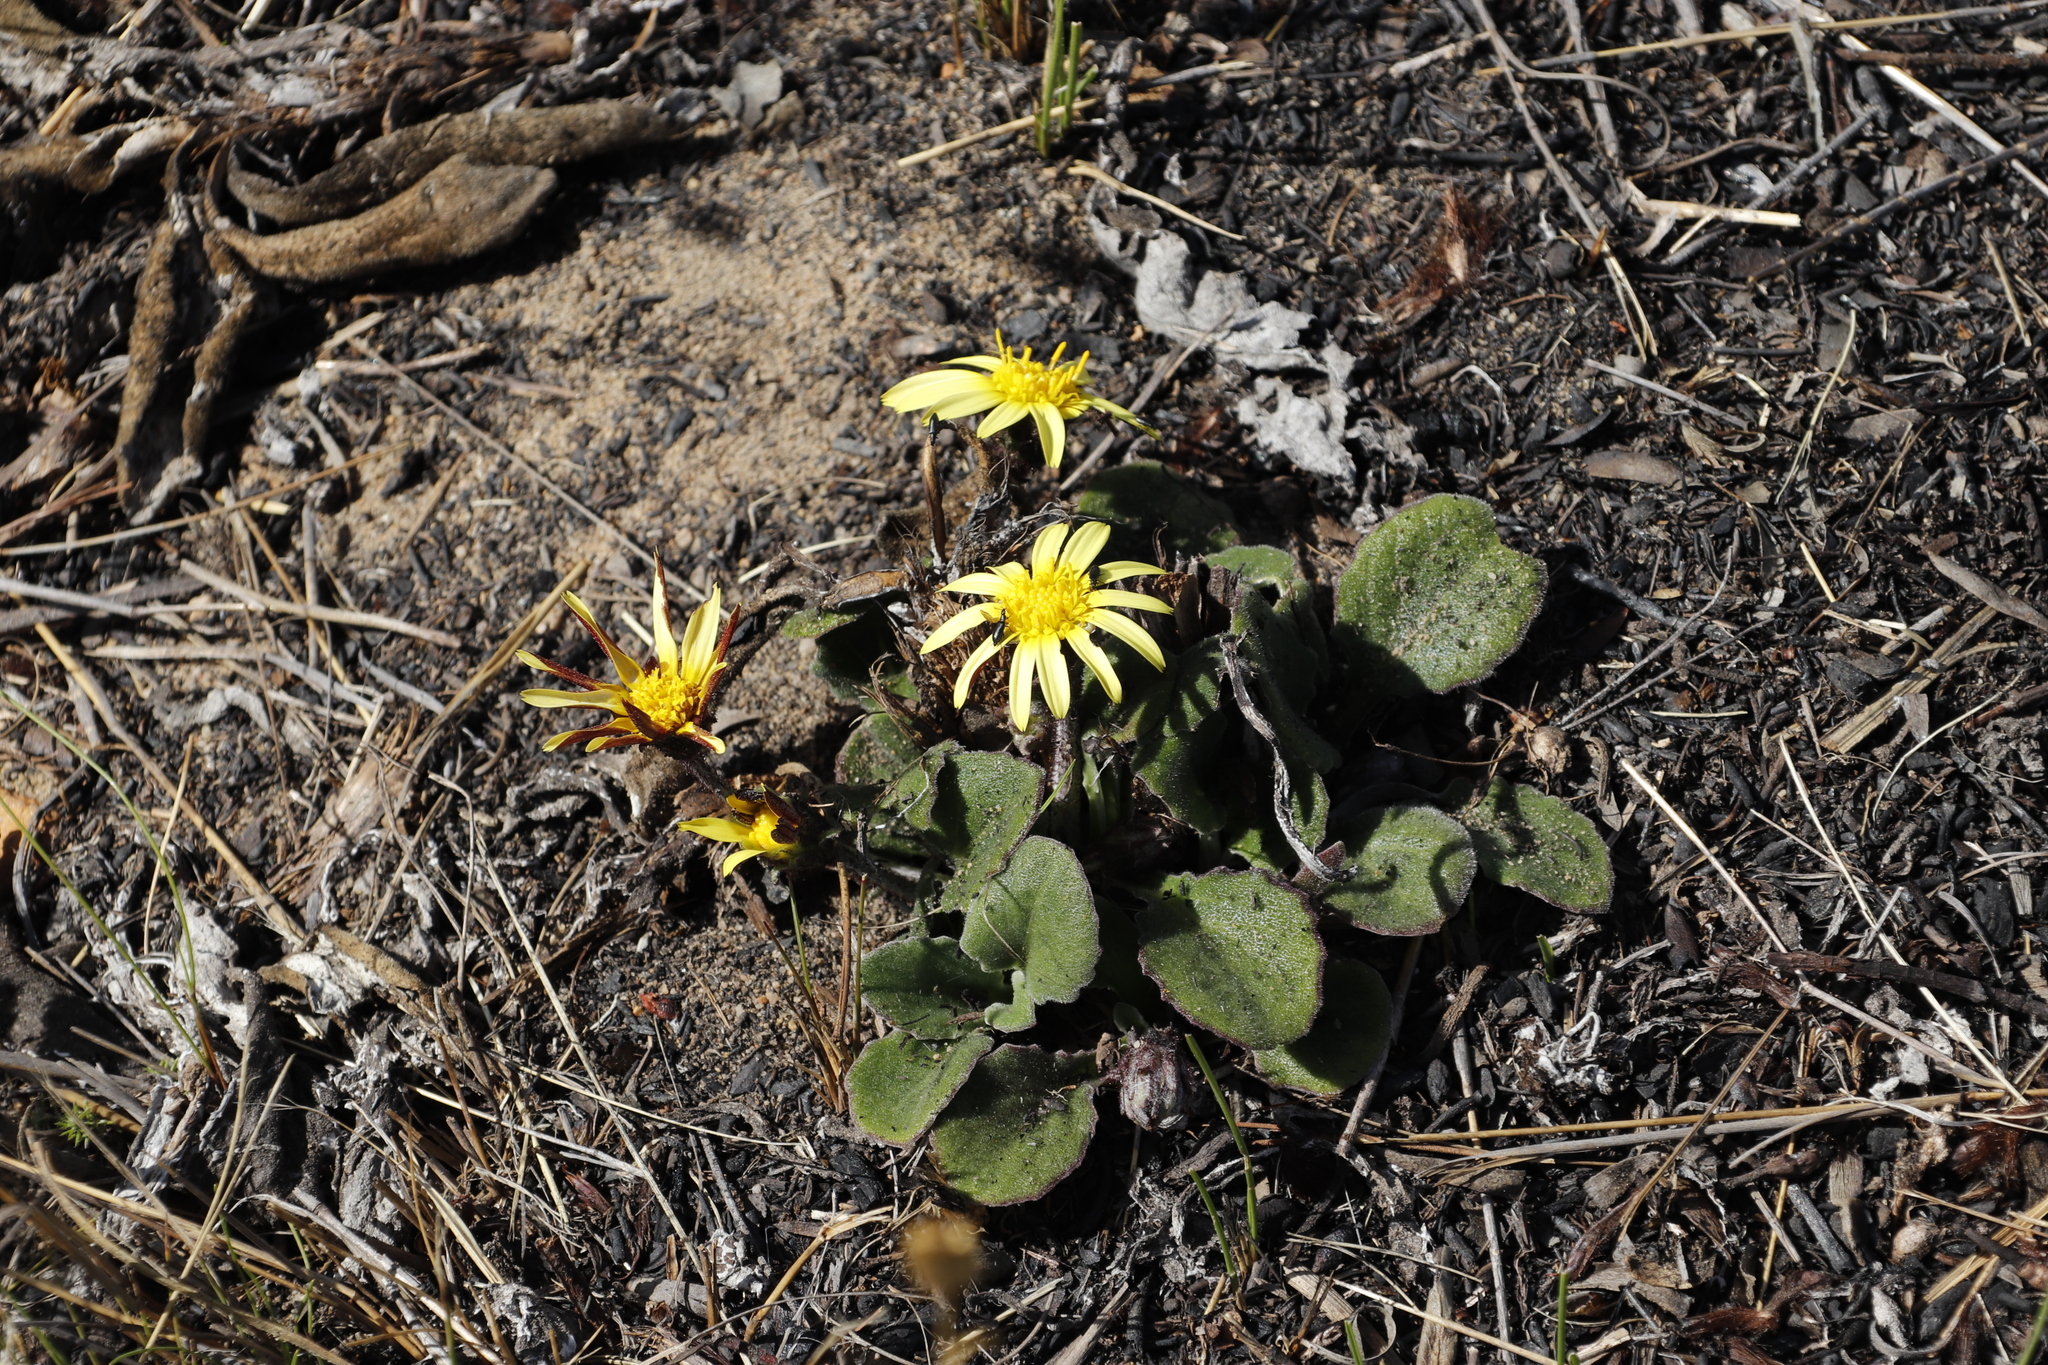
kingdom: Plantae
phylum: Tracheophyta
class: Magnoliopsida
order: Asterales
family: Asteraceae
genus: Haplocarpha
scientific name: Haplocarpha lanata
